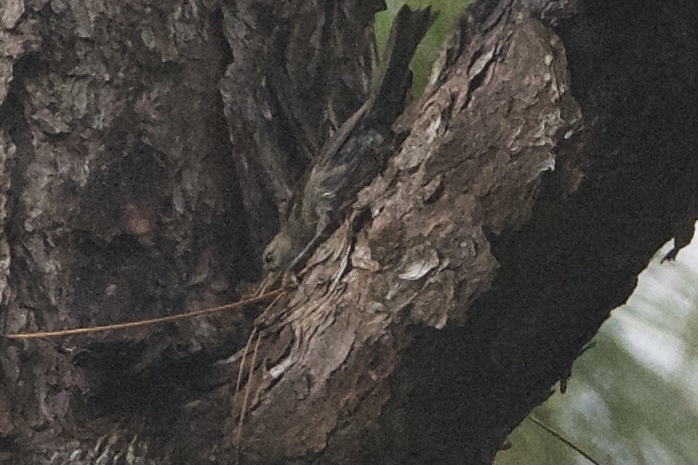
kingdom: Animalia
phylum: Chordata
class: Aves
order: Passeriformes
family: Passerellidae
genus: Peucaea
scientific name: Peucaea aestivalis
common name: Bachman's sparrow
